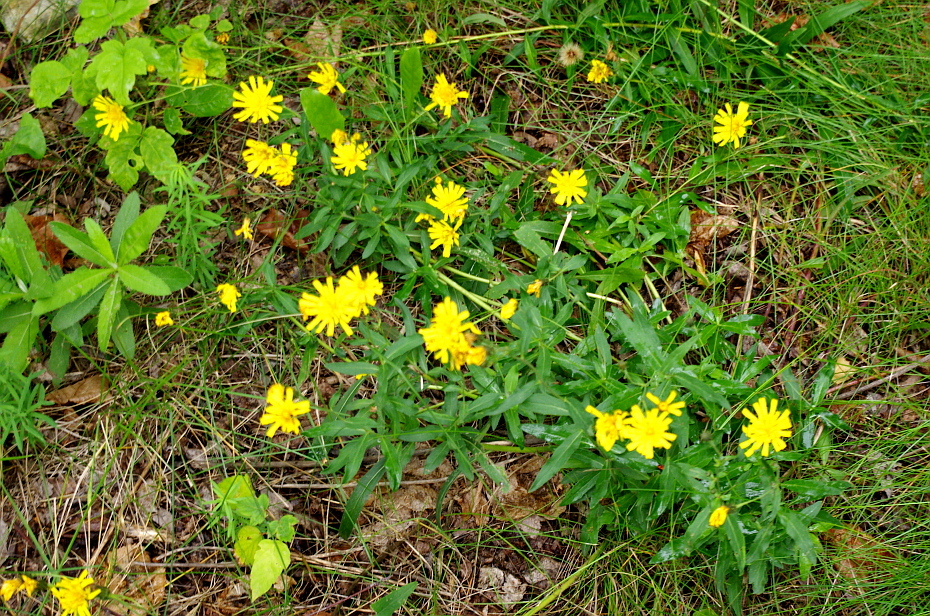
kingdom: Plantae
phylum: Tracheophyta
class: Magnoliopsida
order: Asterales
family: Asteraceae
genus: Hieracium
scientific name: Hieracium umbellatum
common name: Northern hawkweed
